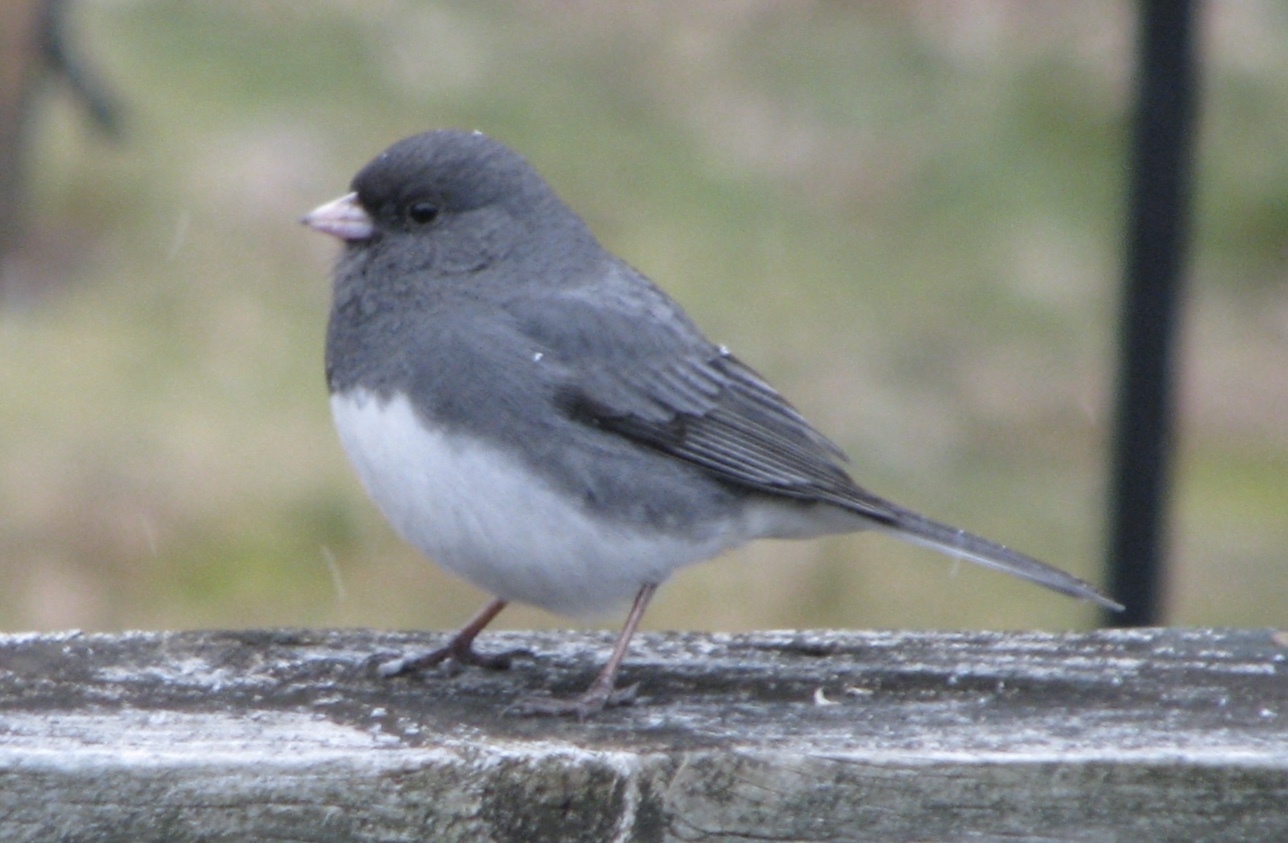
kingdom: Animalia
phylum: Chordata
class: Aves
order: Passeriformes
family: Passerellidae
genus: Junco
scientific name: Junco hyemalis
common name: Dark-eyed junco
